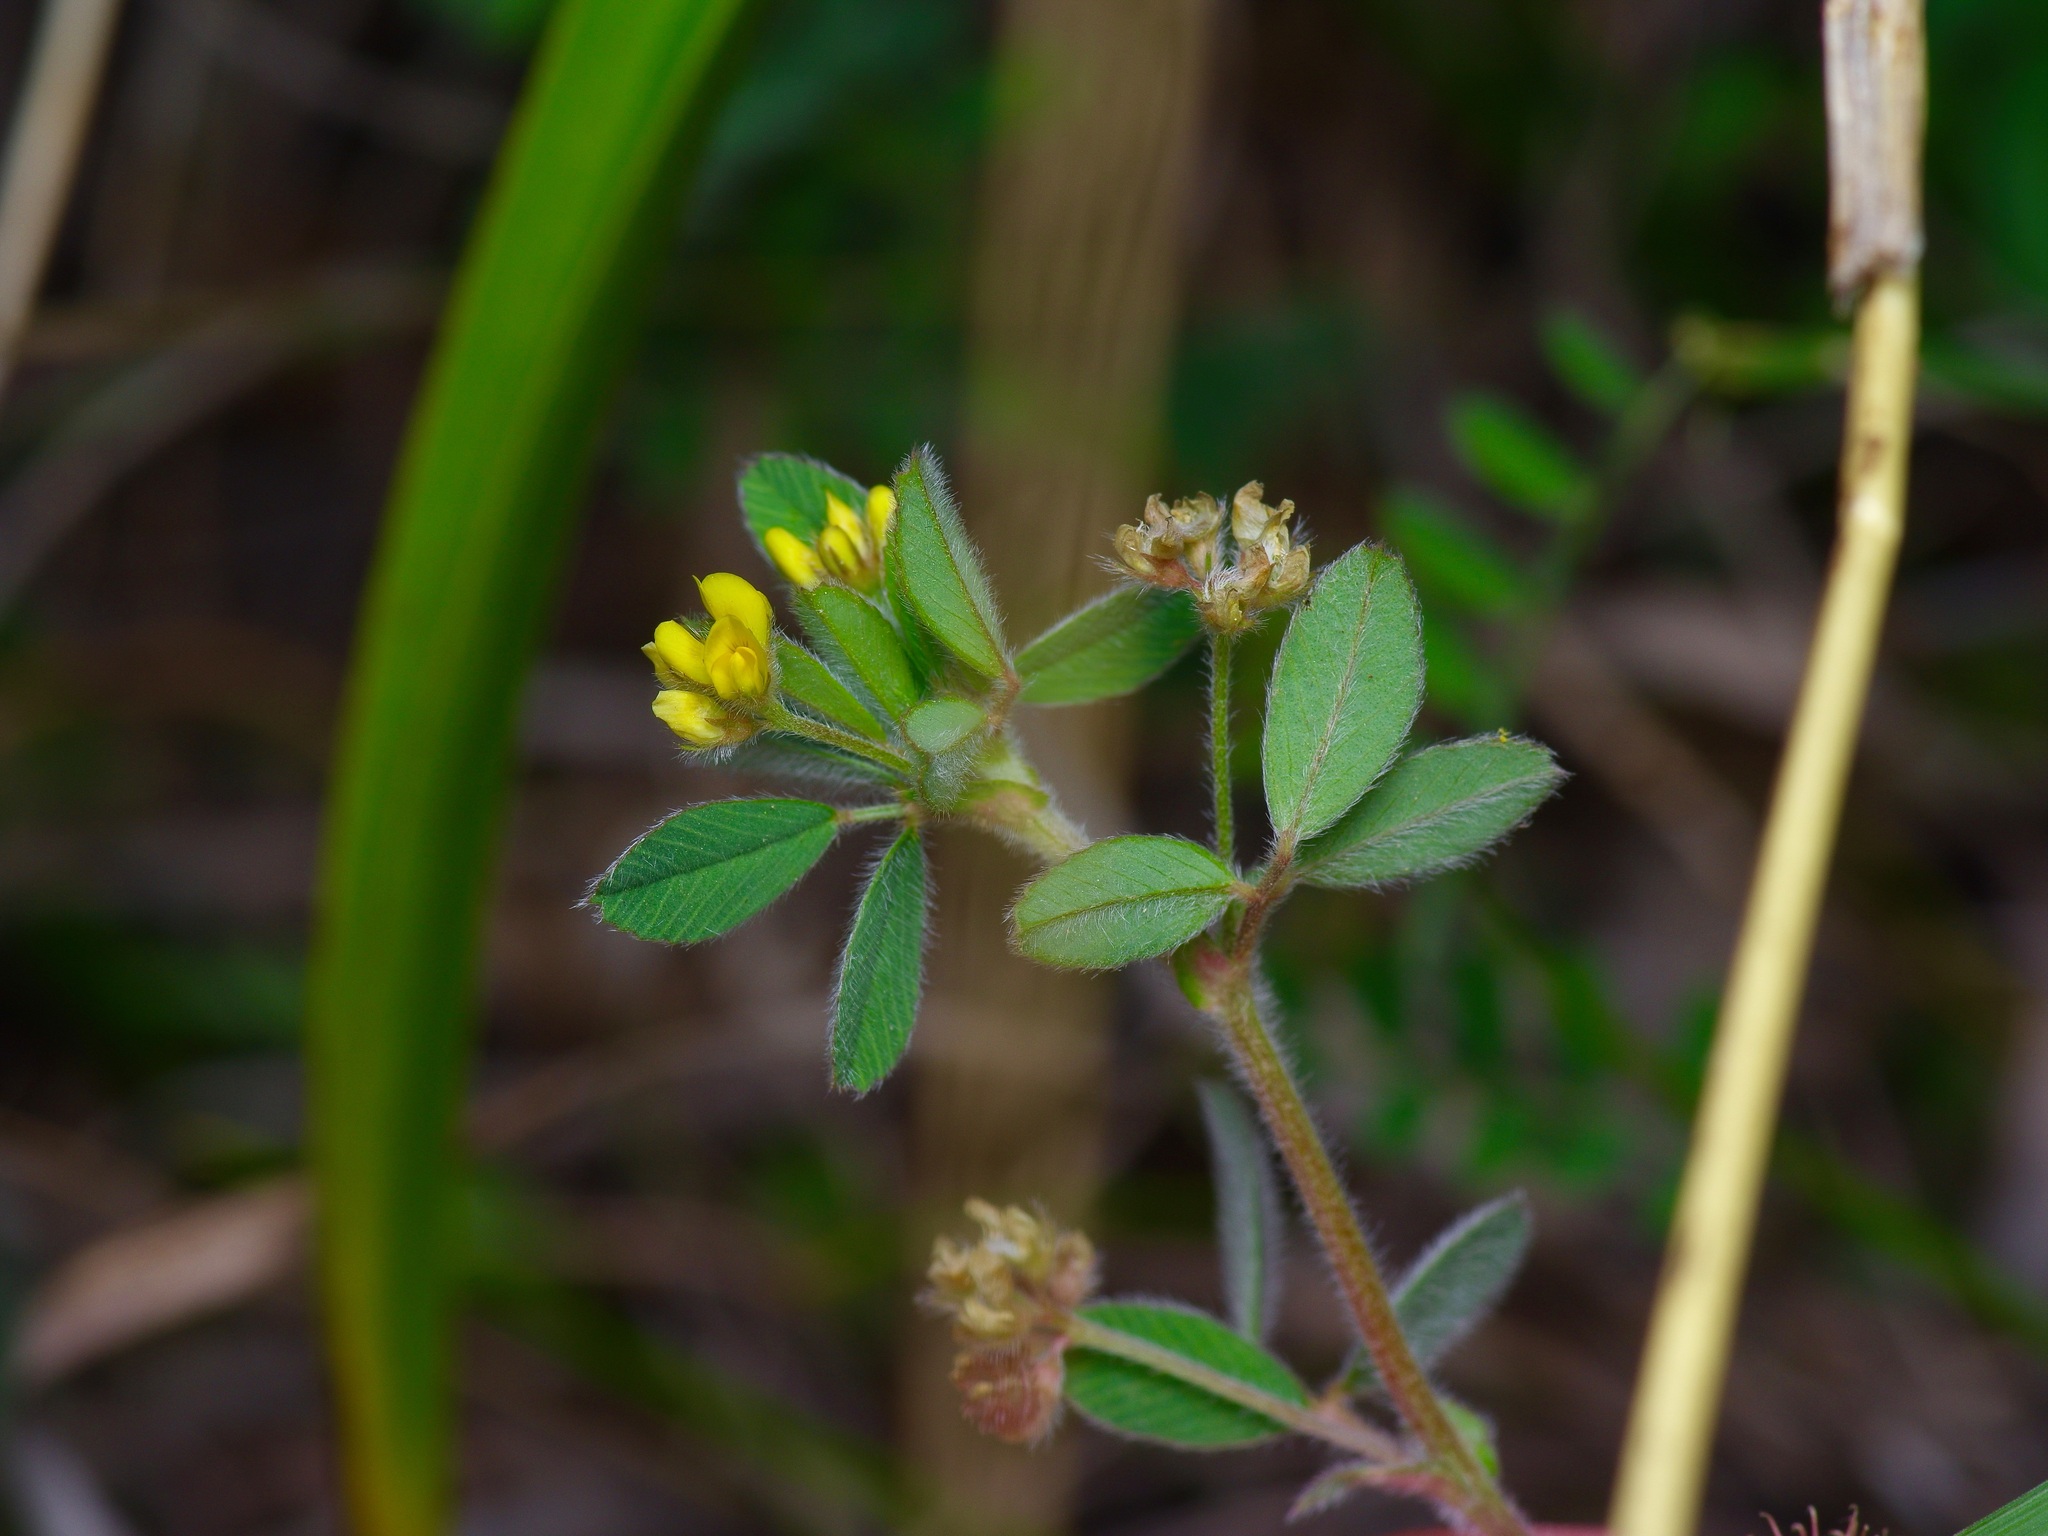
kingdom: Plantae
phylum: Tracheophyta
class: Magnoliopsida
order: Fabales
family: Fabaceae
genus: Medicago
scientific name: Medicago minima
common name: Little bur-clover
